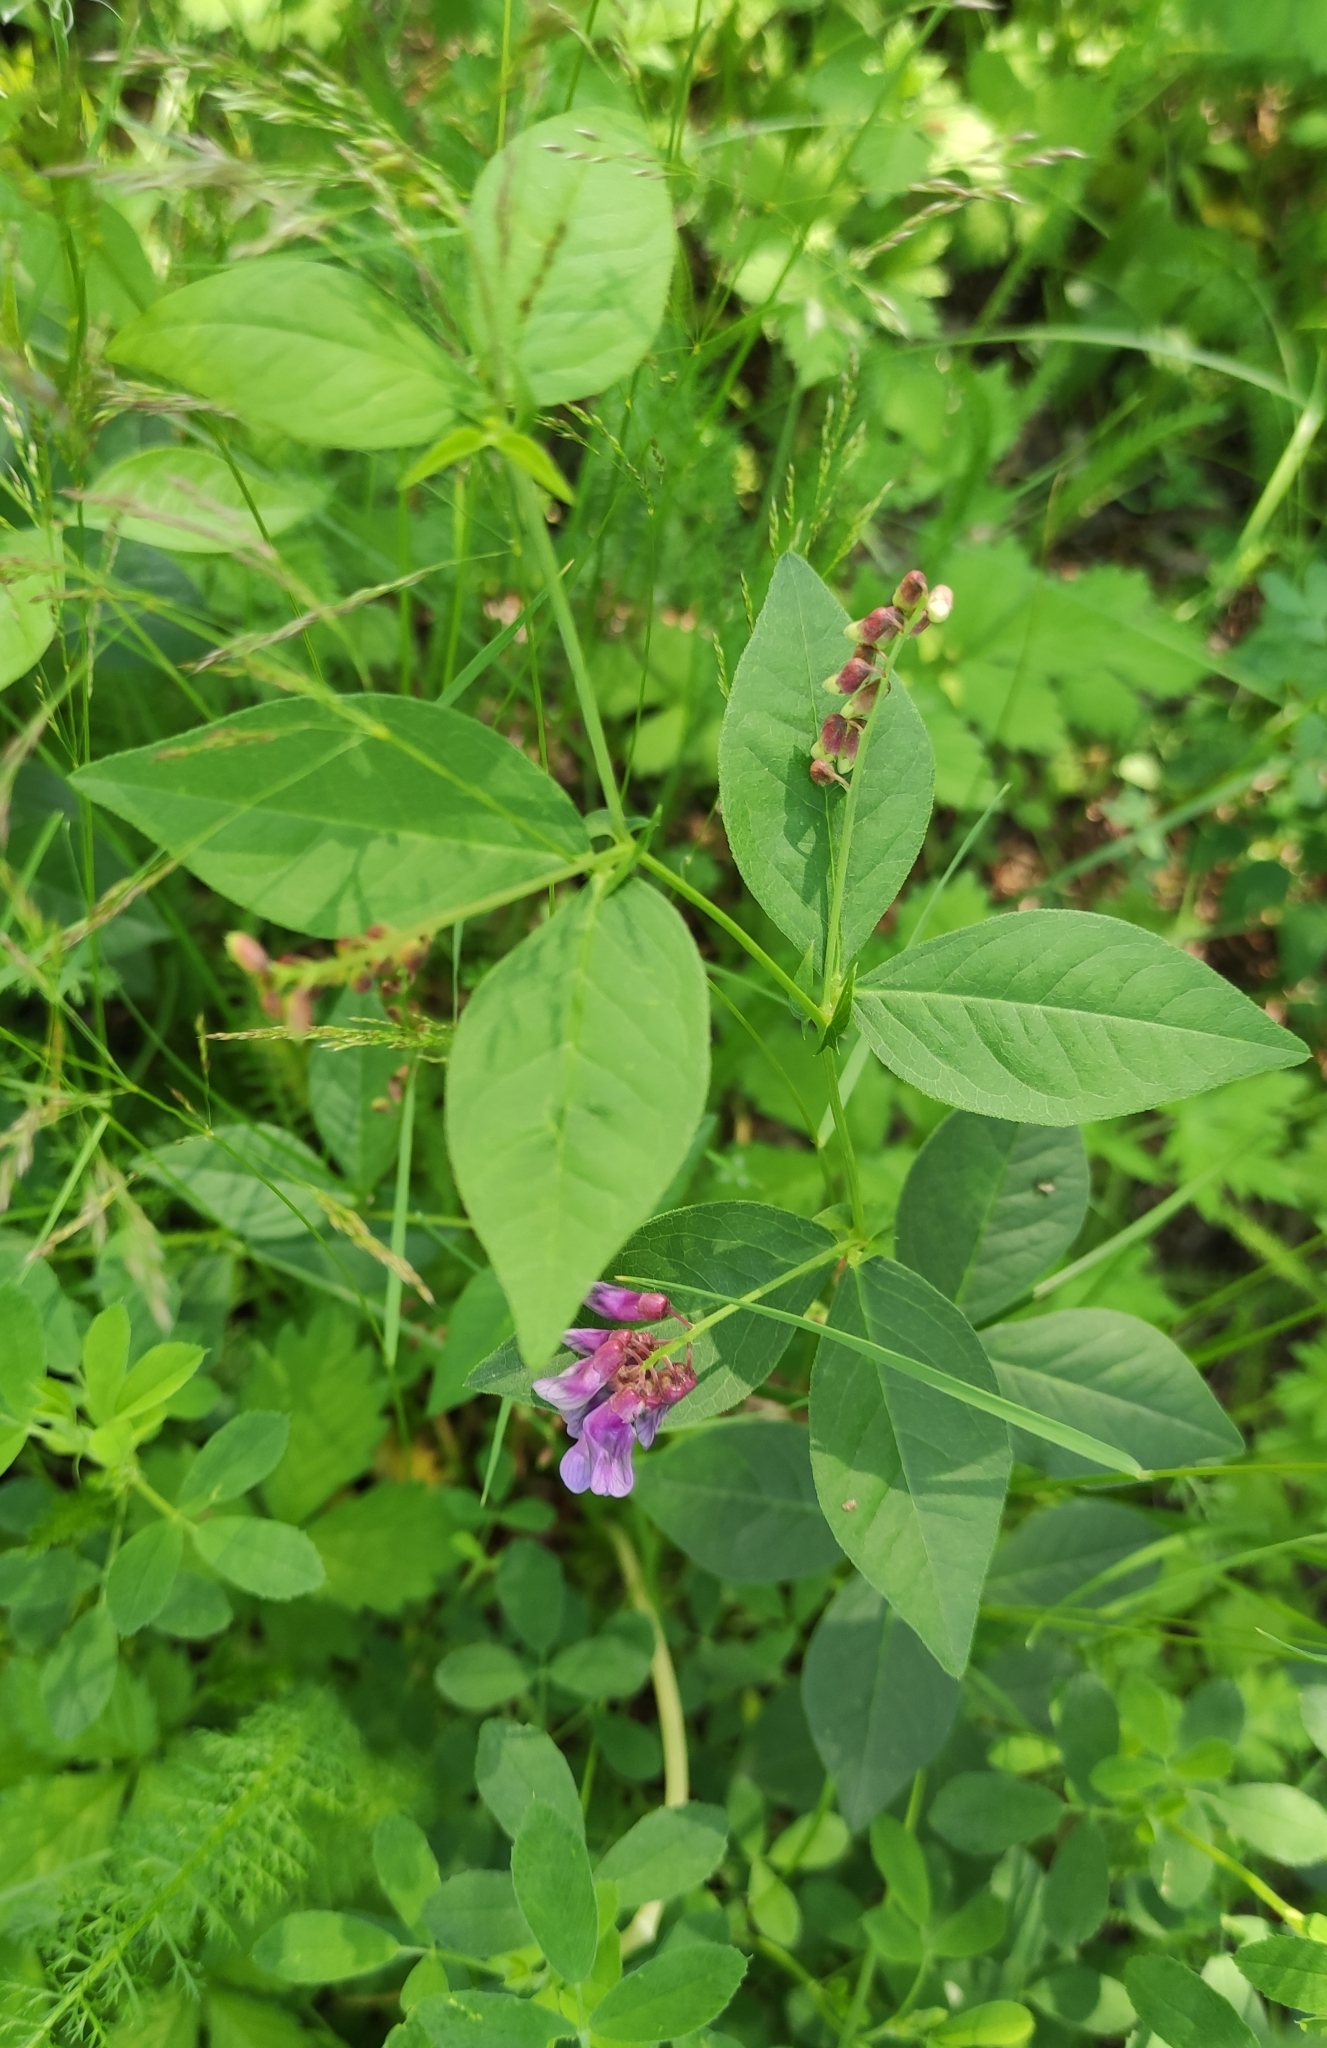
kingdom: Plantae
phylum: Tracheophyta
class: Magnoliopsida
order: Fabales
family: Fabaceae
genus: Vicia
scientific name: Vicia unijuga
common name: Two-leaf vetch
